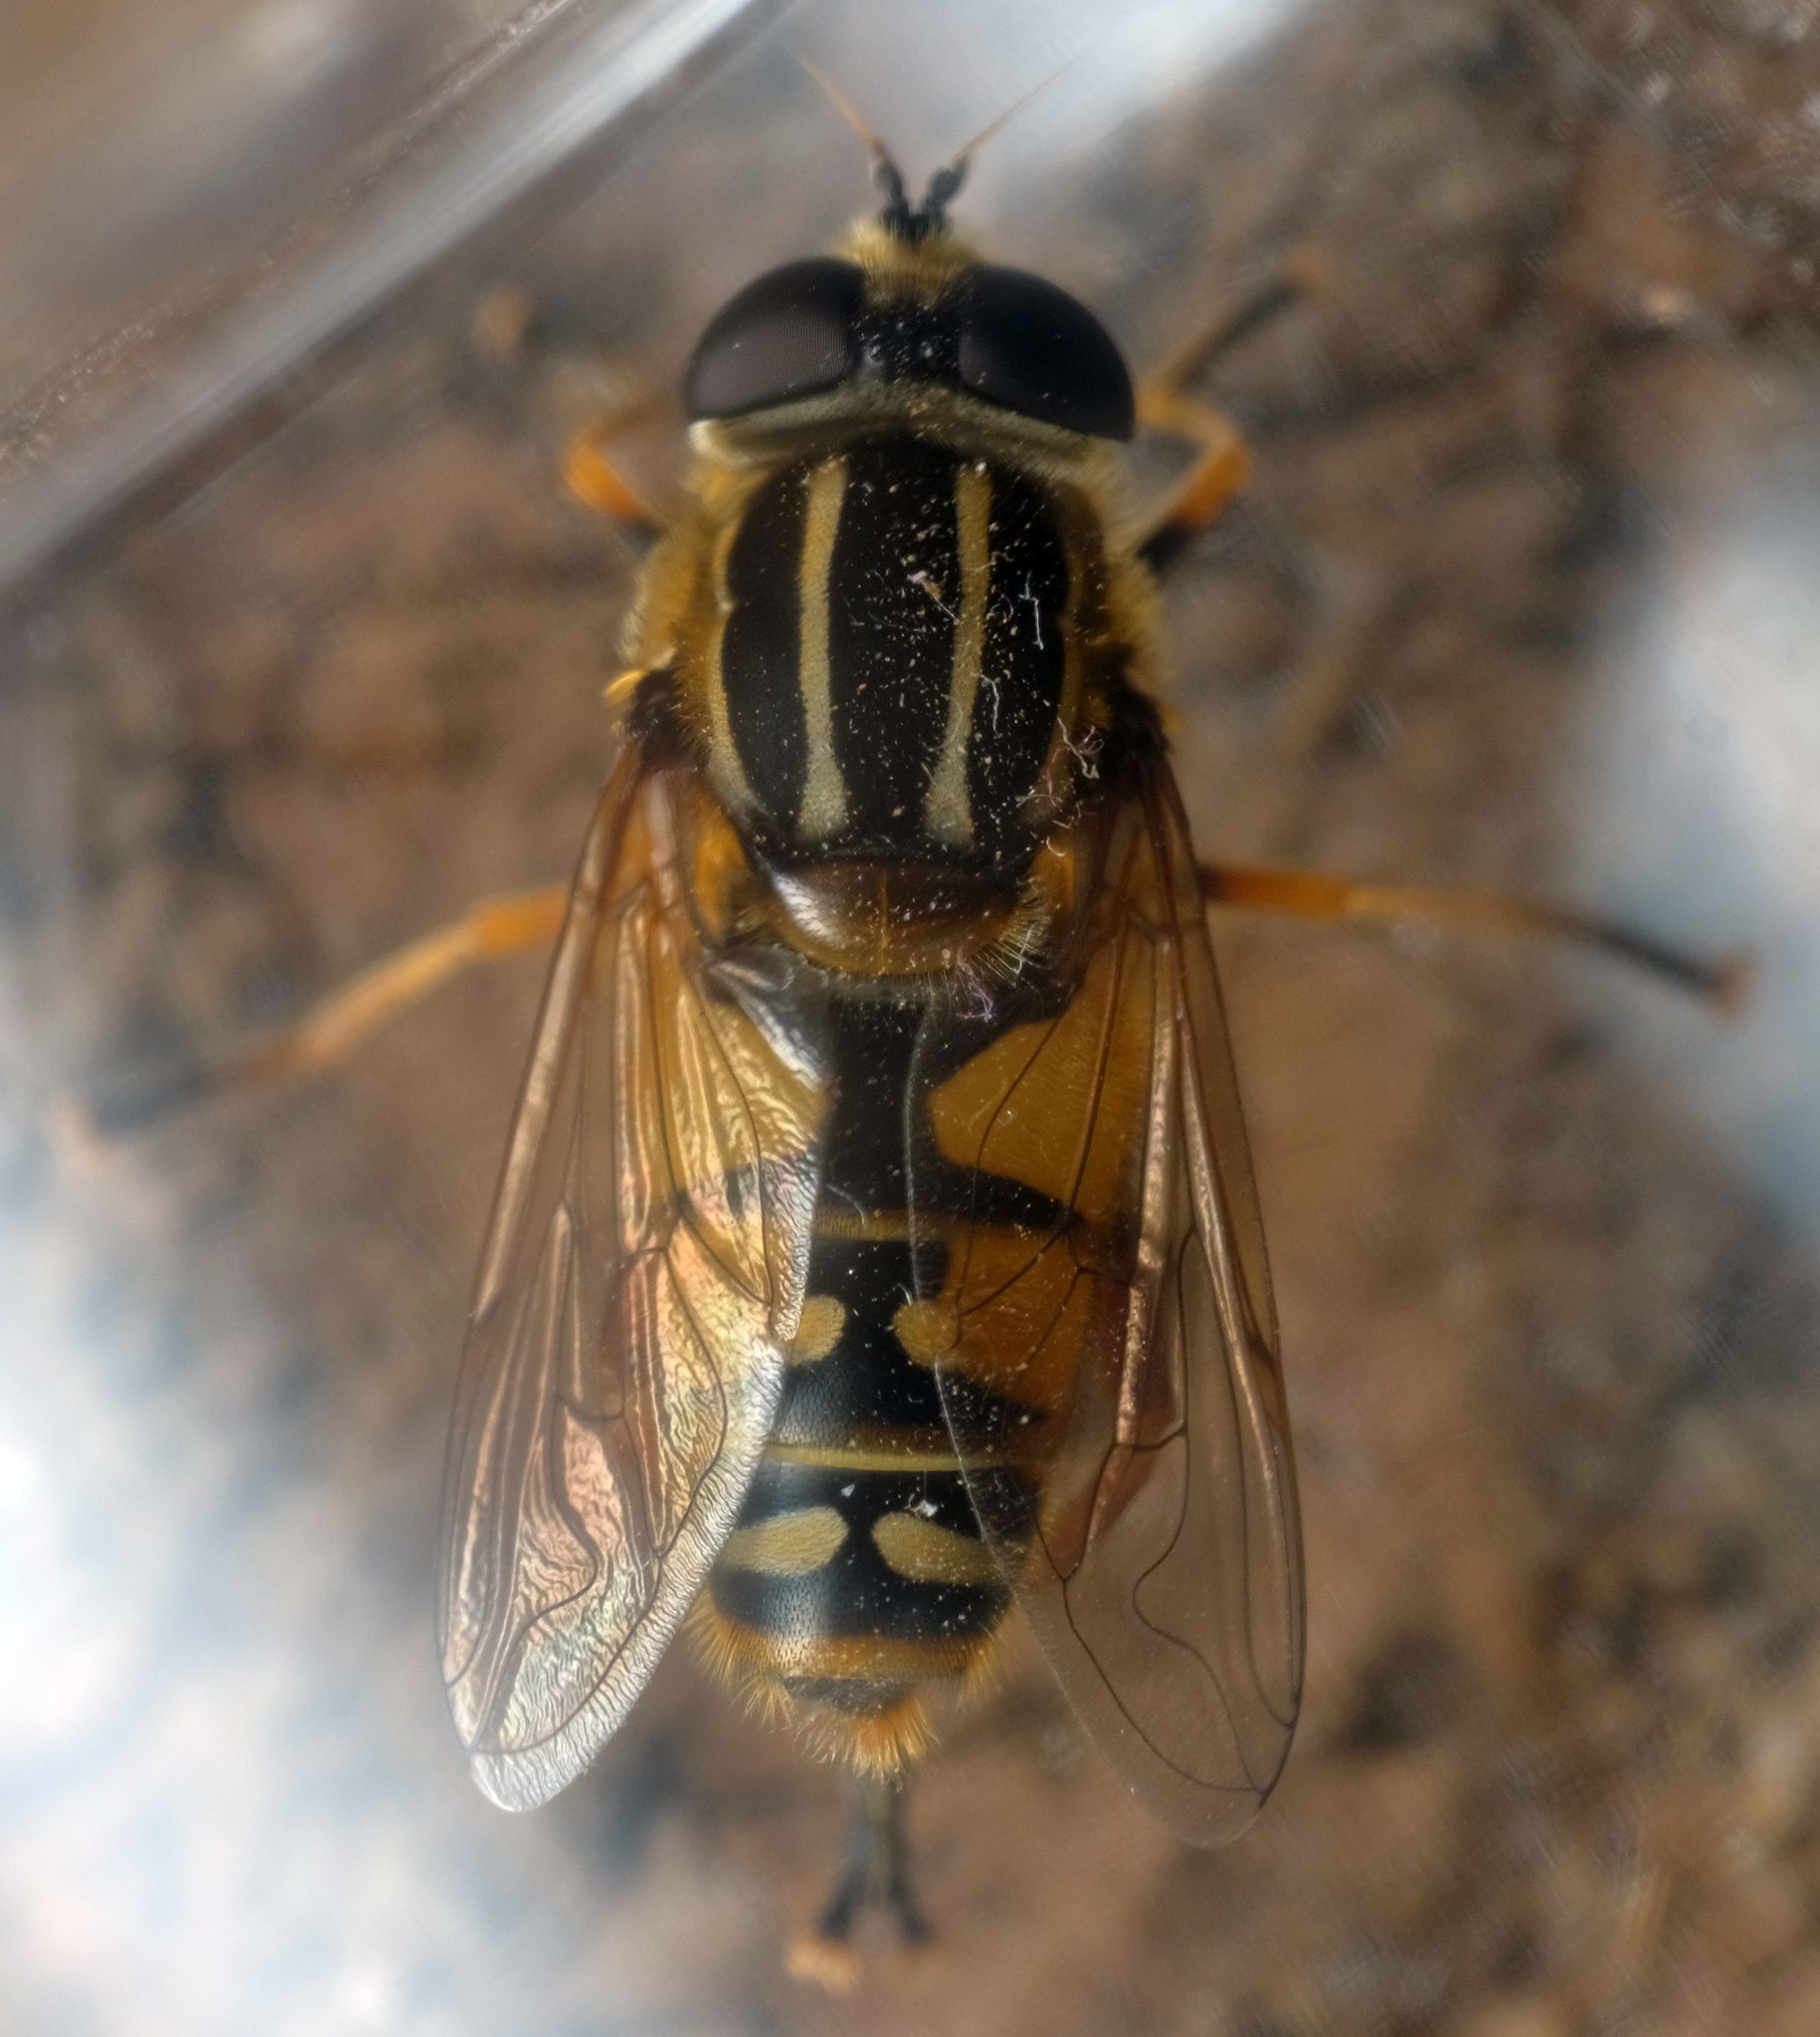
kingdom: Animalia
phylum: Arthropoda
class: Insecta
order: Diptera
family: Syrphidae
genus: Helophilus
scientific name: Helophilus pendulus
